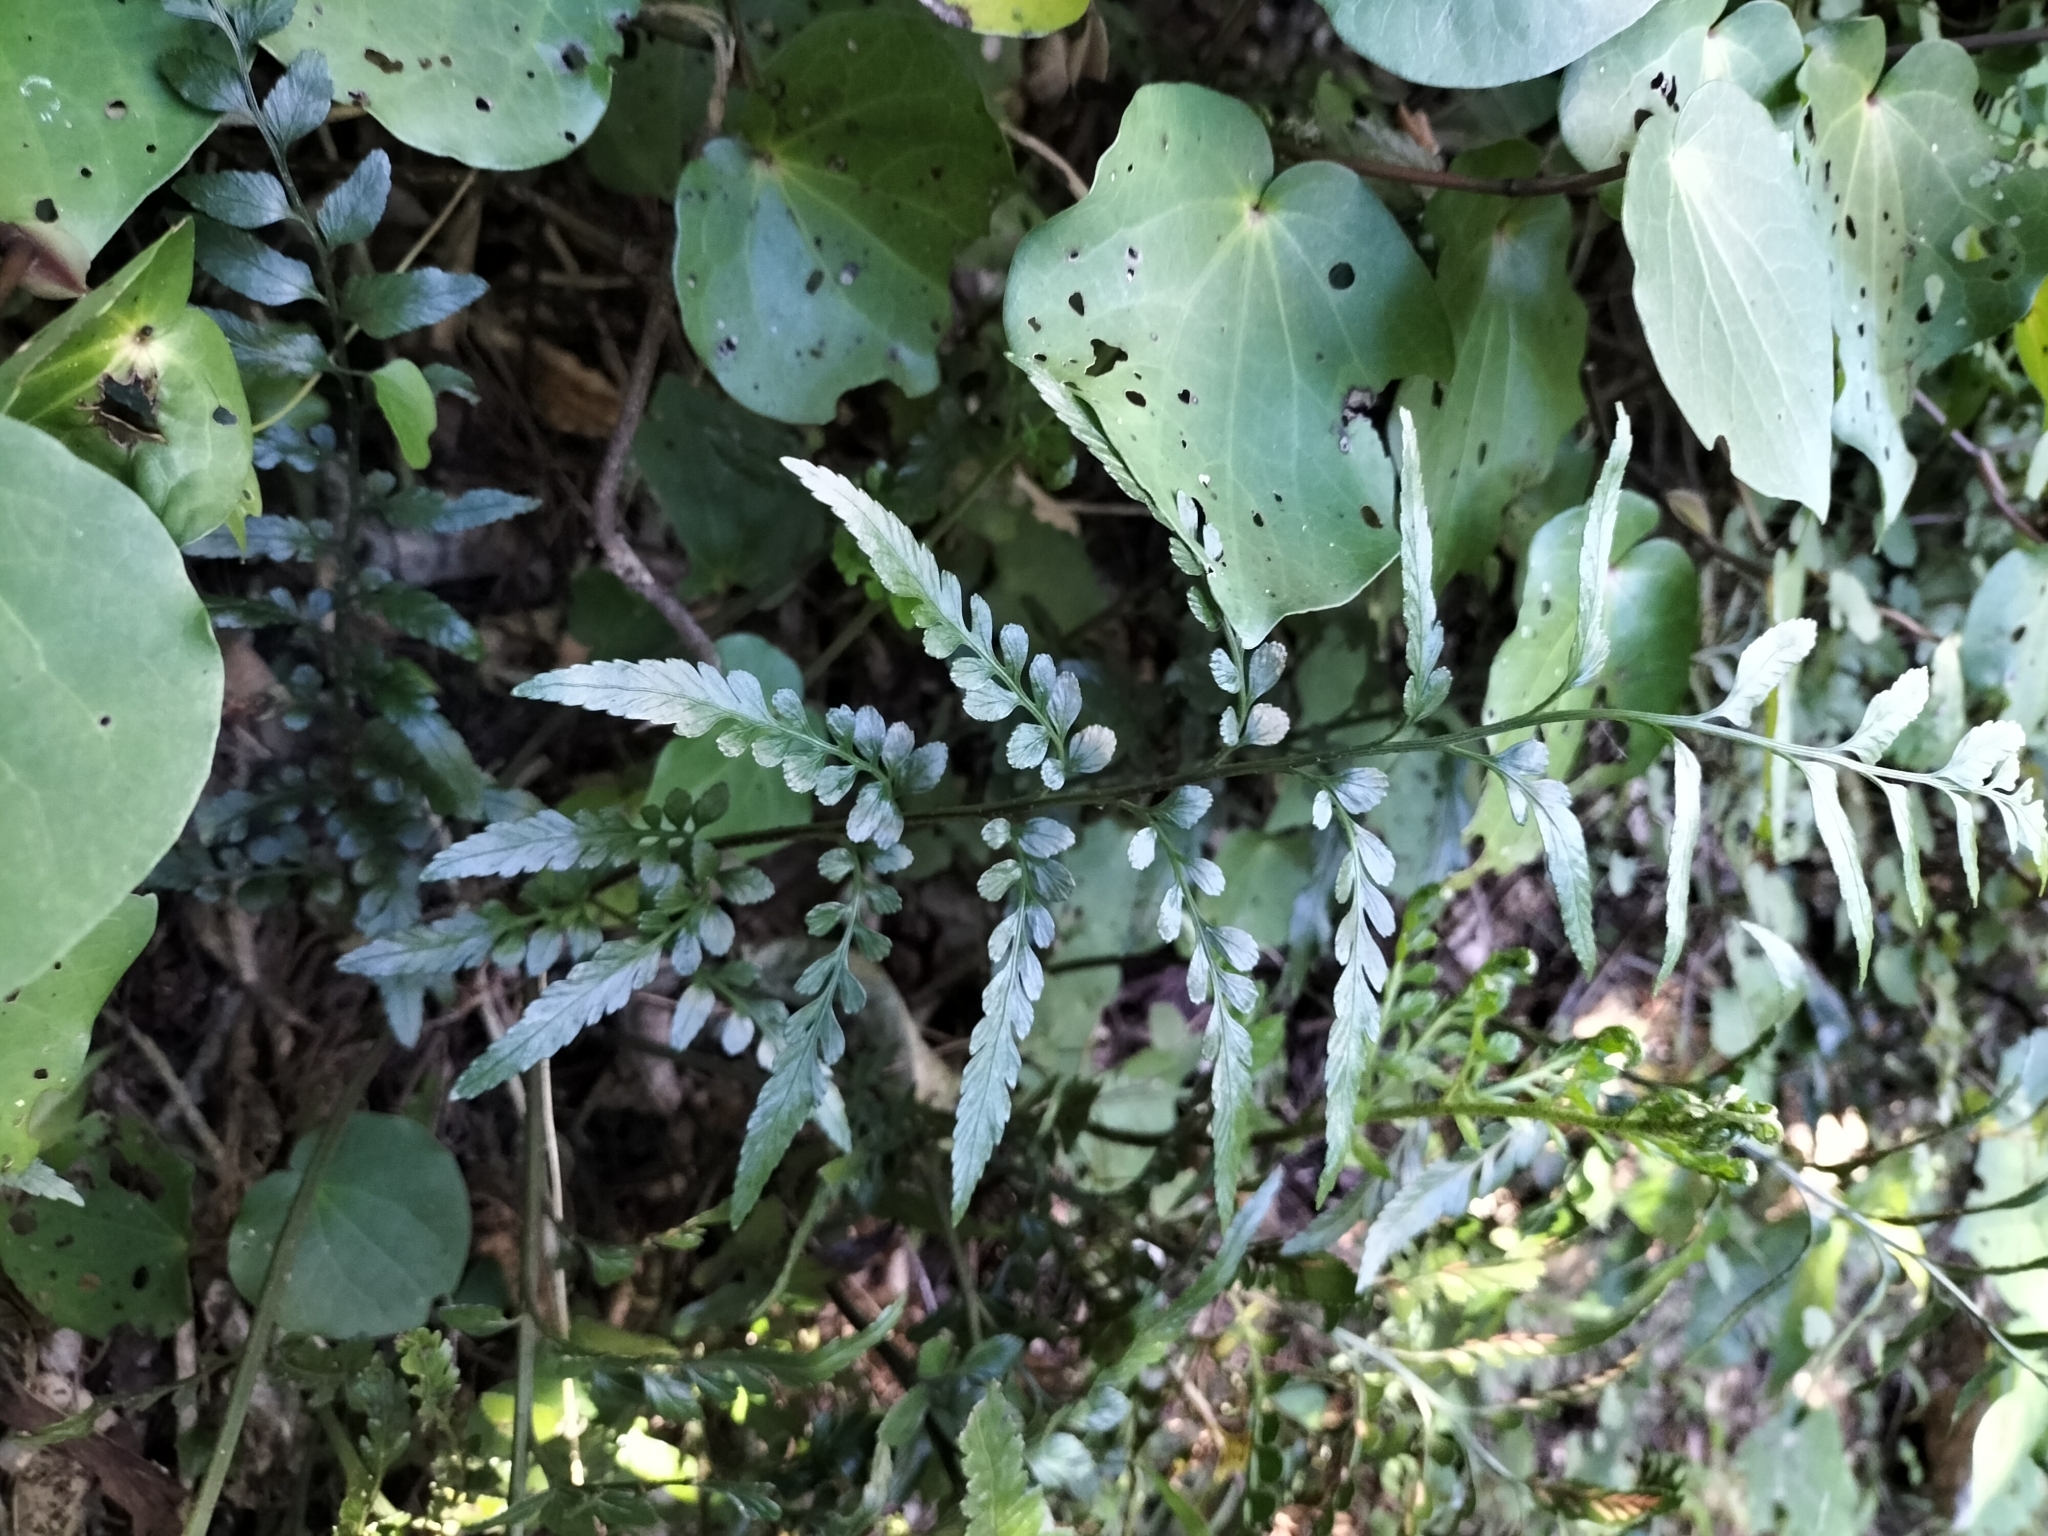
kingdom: Plantae
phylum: Tracheophyta
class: Polypodiopsida
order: Polypodiales
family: Aspleniaceae
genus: Asplenium
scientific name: Asplenium lyallii
